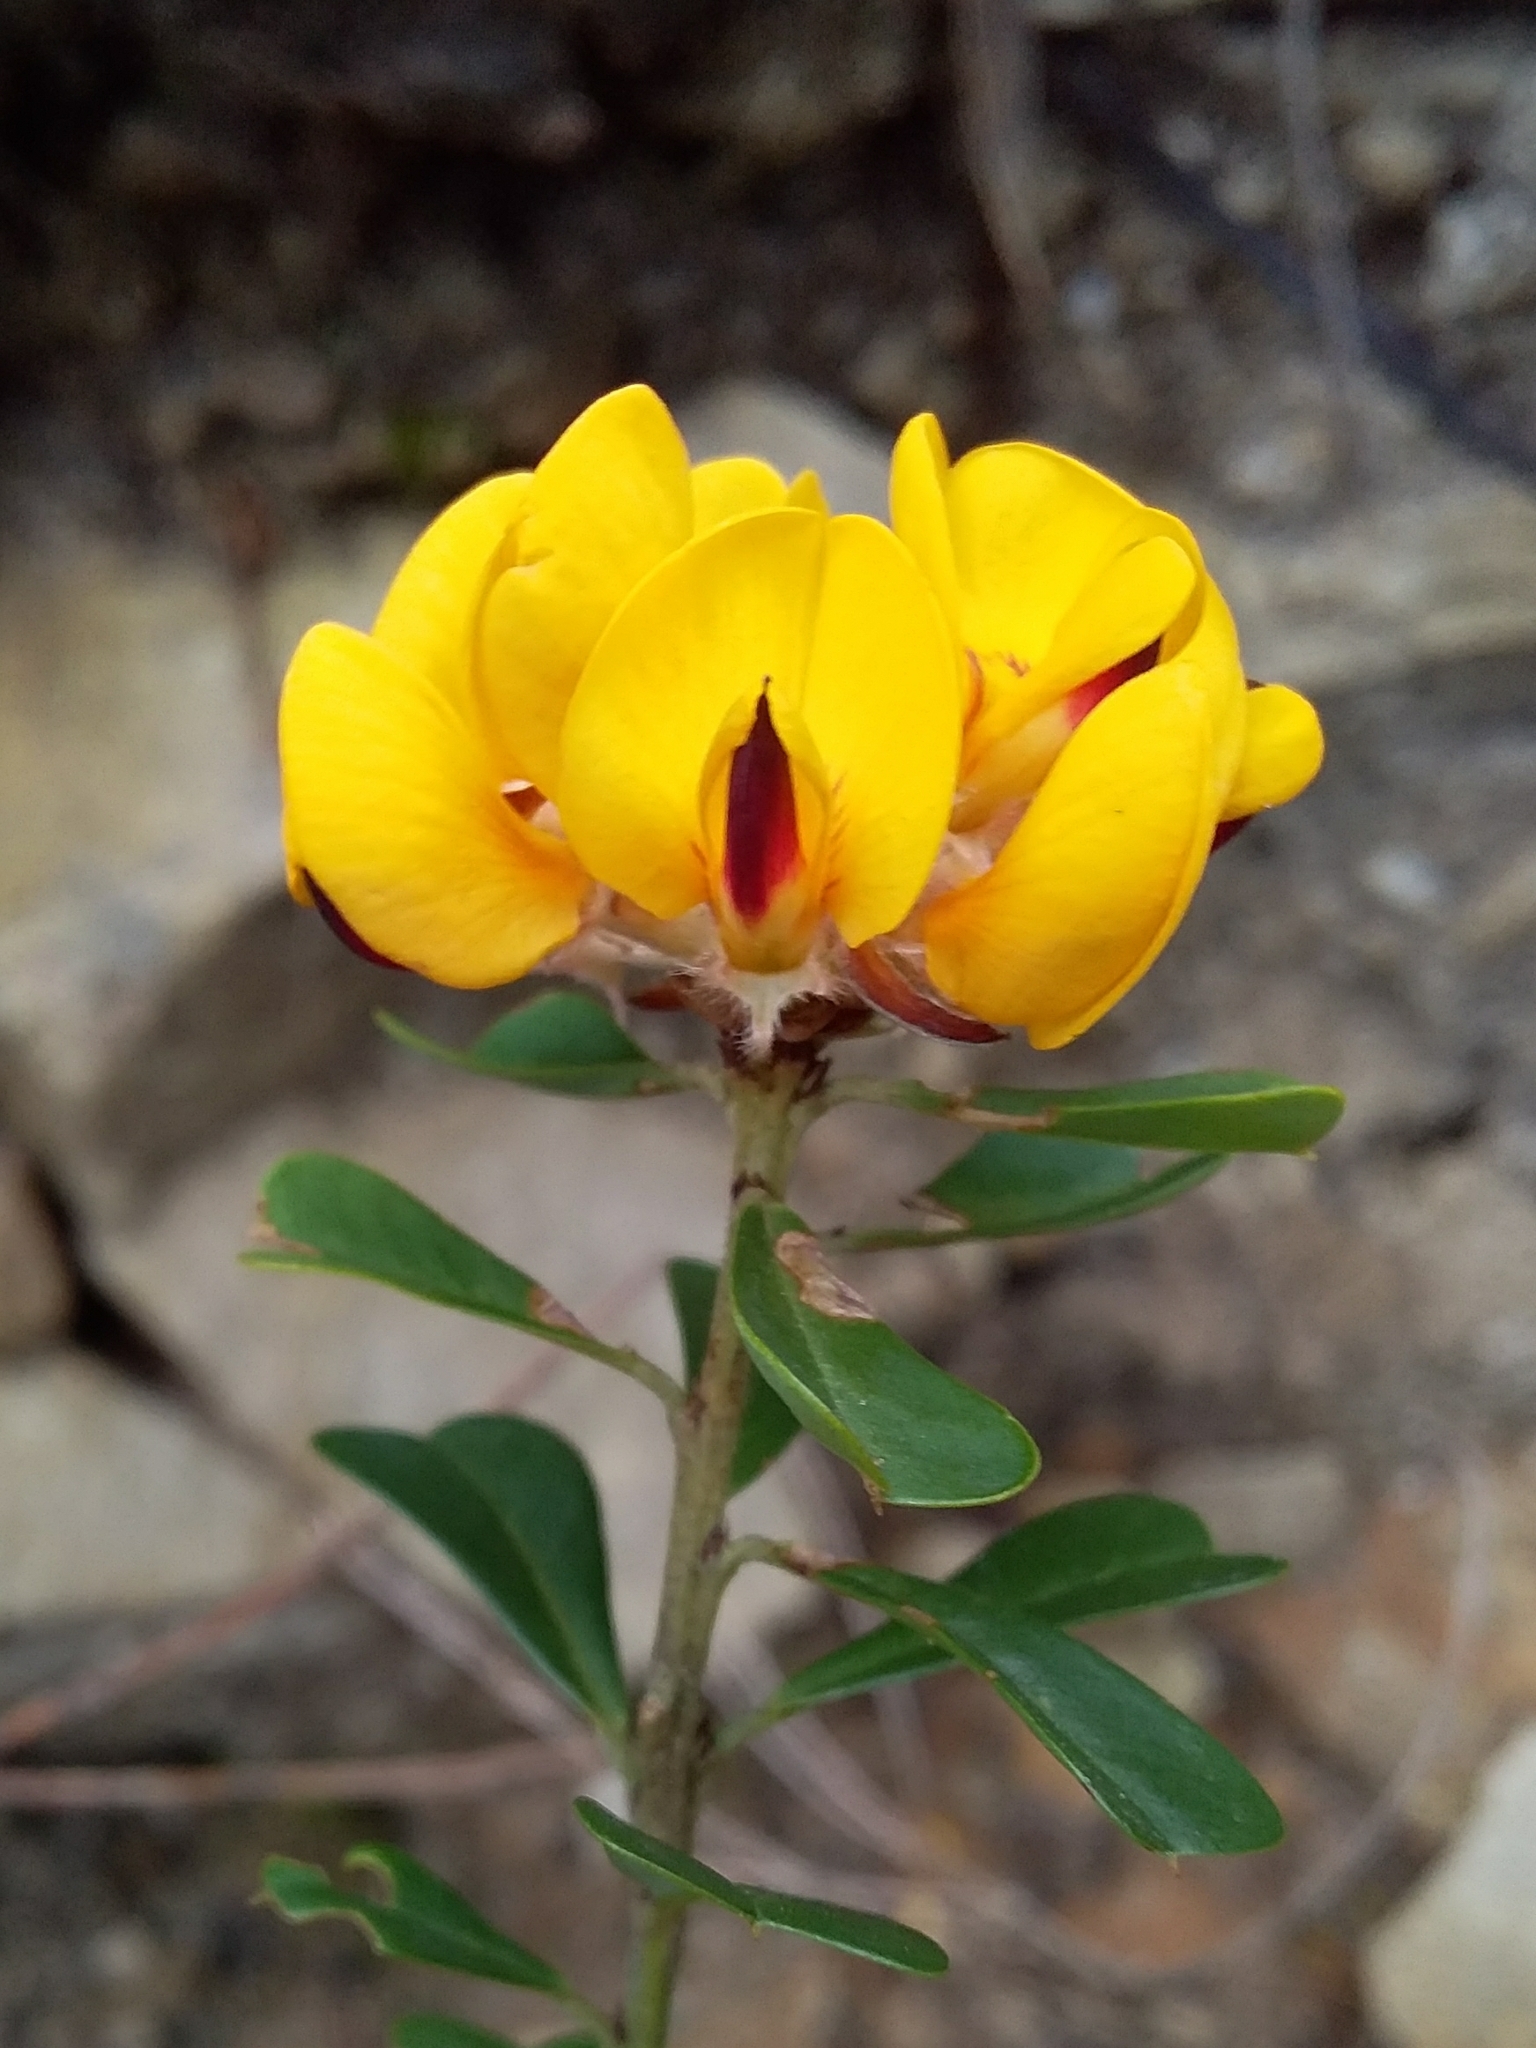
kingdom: Plantae
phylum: Tracheophyta
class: Magnoliopsida
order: Fabales
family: Fabaceae
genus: Pultenaea
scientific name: Pultenaea daphnoides
